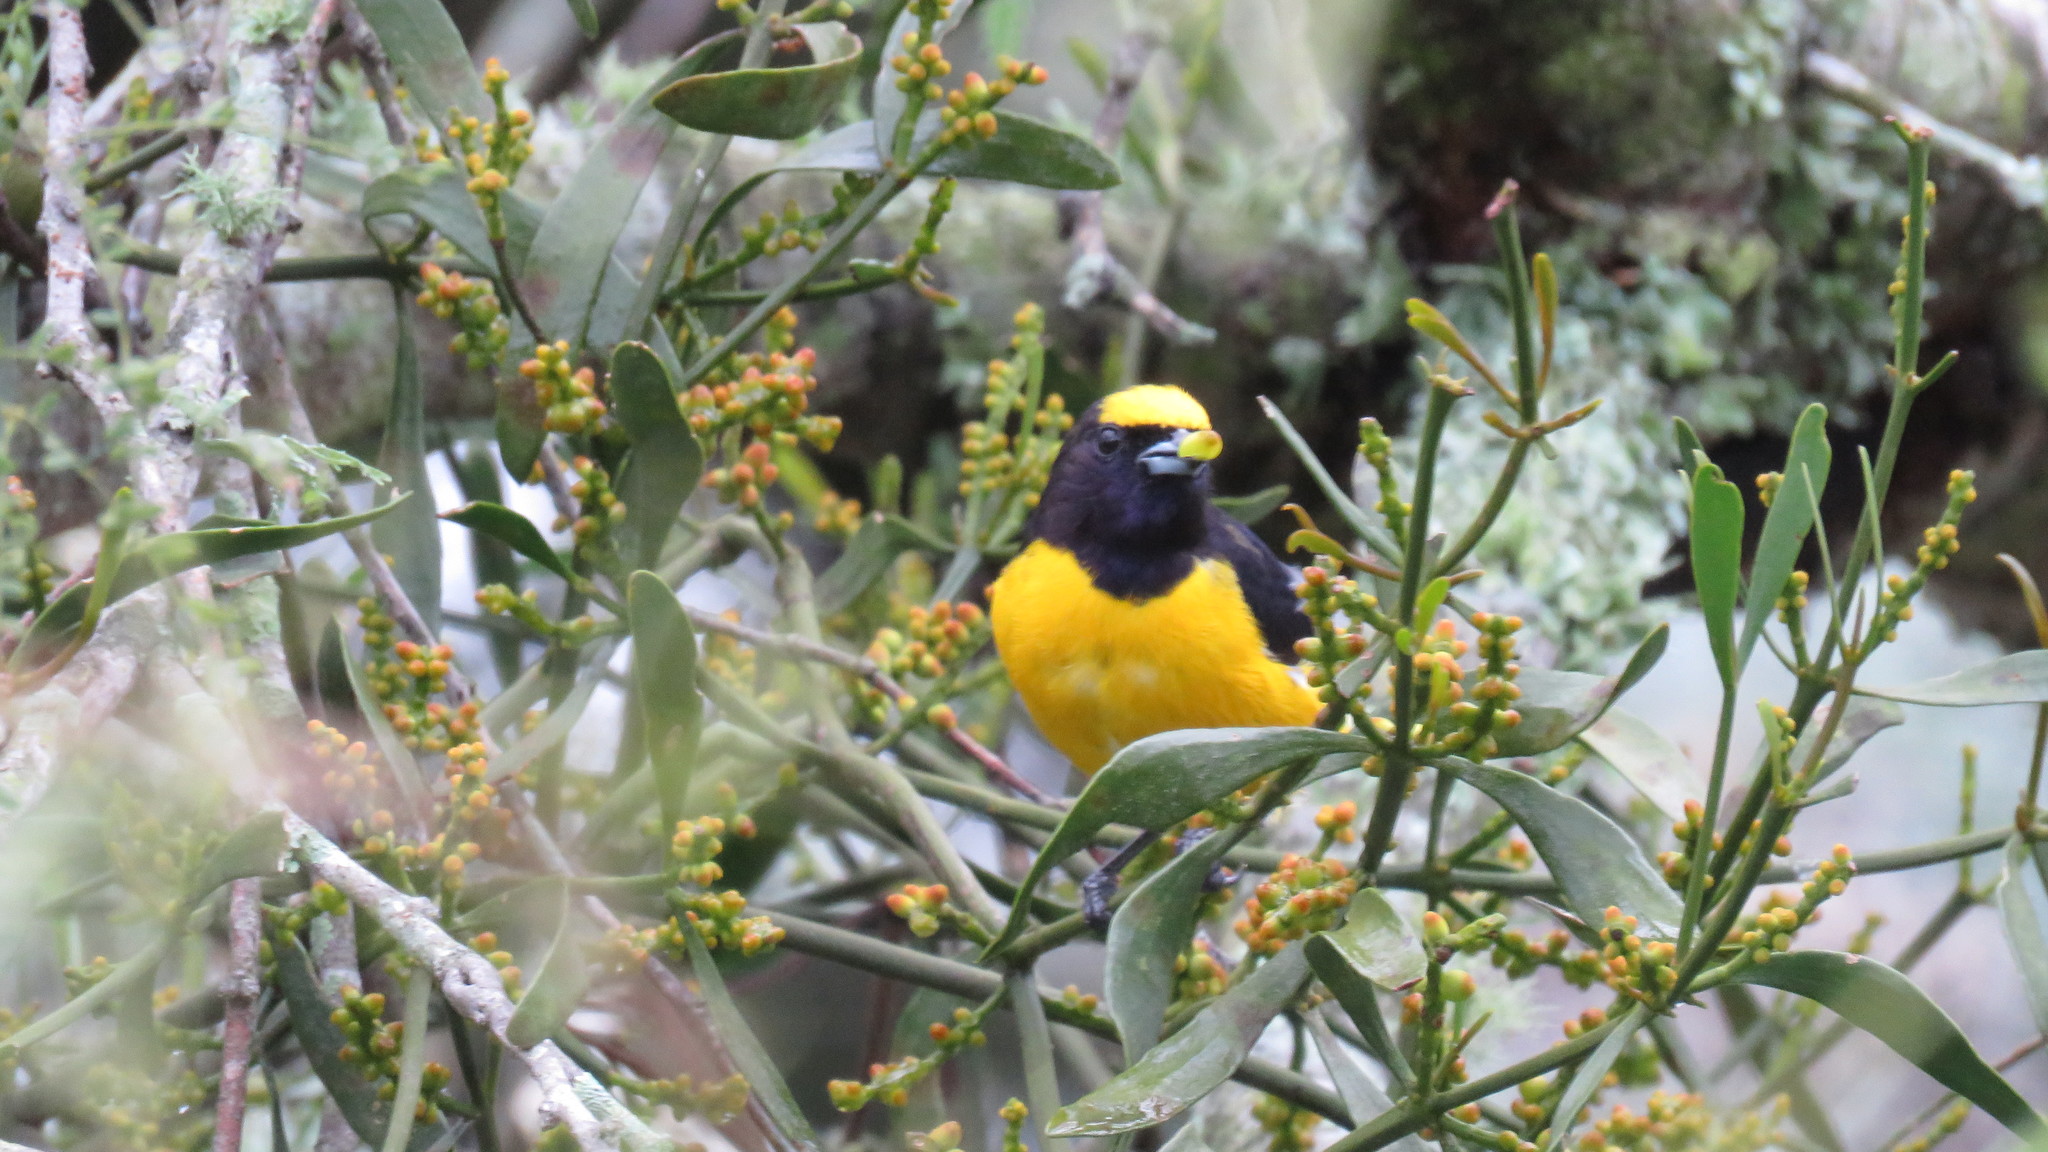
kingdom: Animalia
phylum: Chordata
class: Aves
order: Passeriformes
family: Fringillidae
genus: Euphonia
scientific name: Euphonia chlorotica
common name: Purple-throated euphonia
